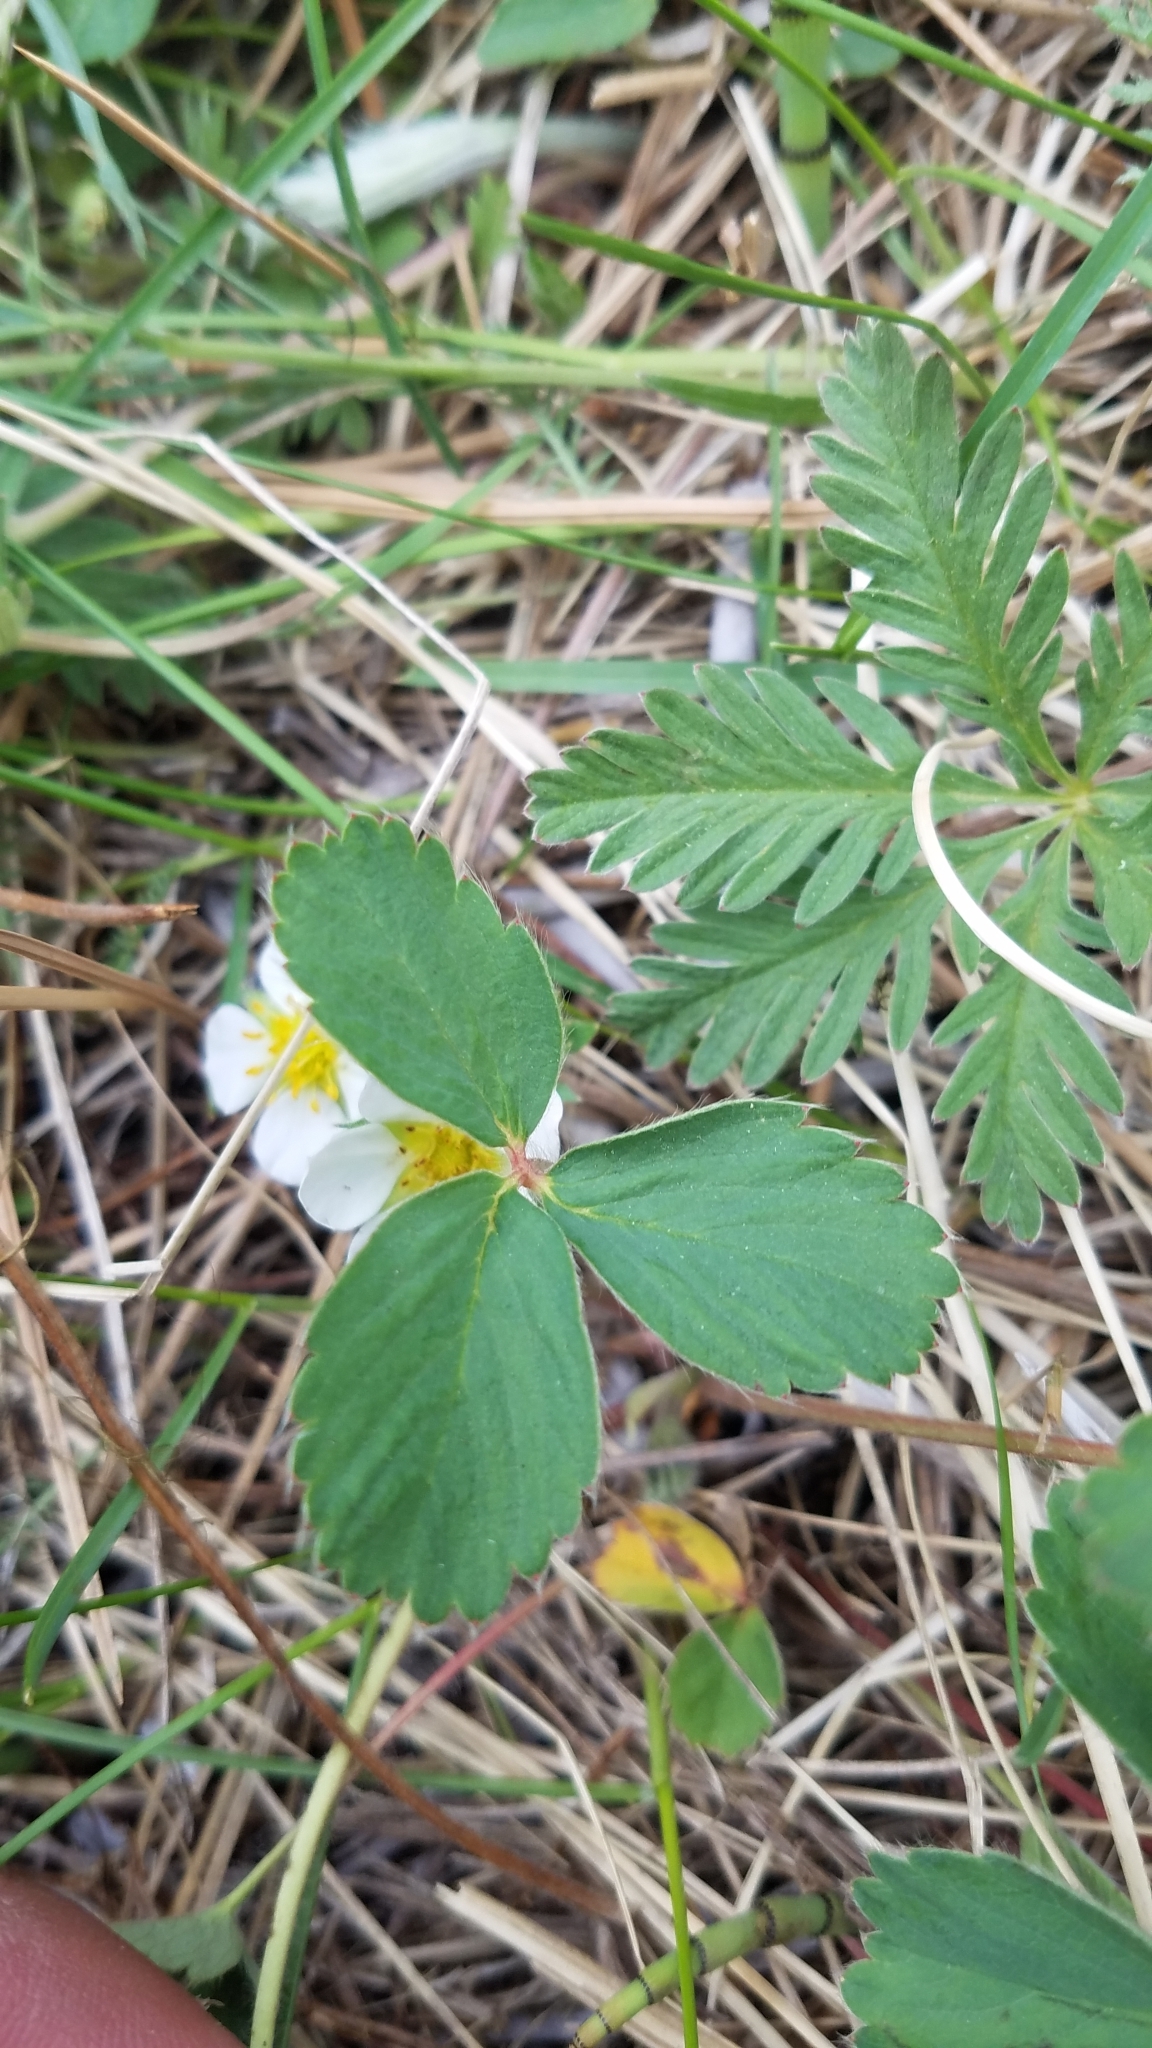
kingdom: Plantae
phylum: Tracheophyta
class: Magnoliopsida
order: Rosales
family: Rosaceae
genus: Fragaria
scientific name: Fragaria virginiana
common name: Thickleaved wild strawberry
